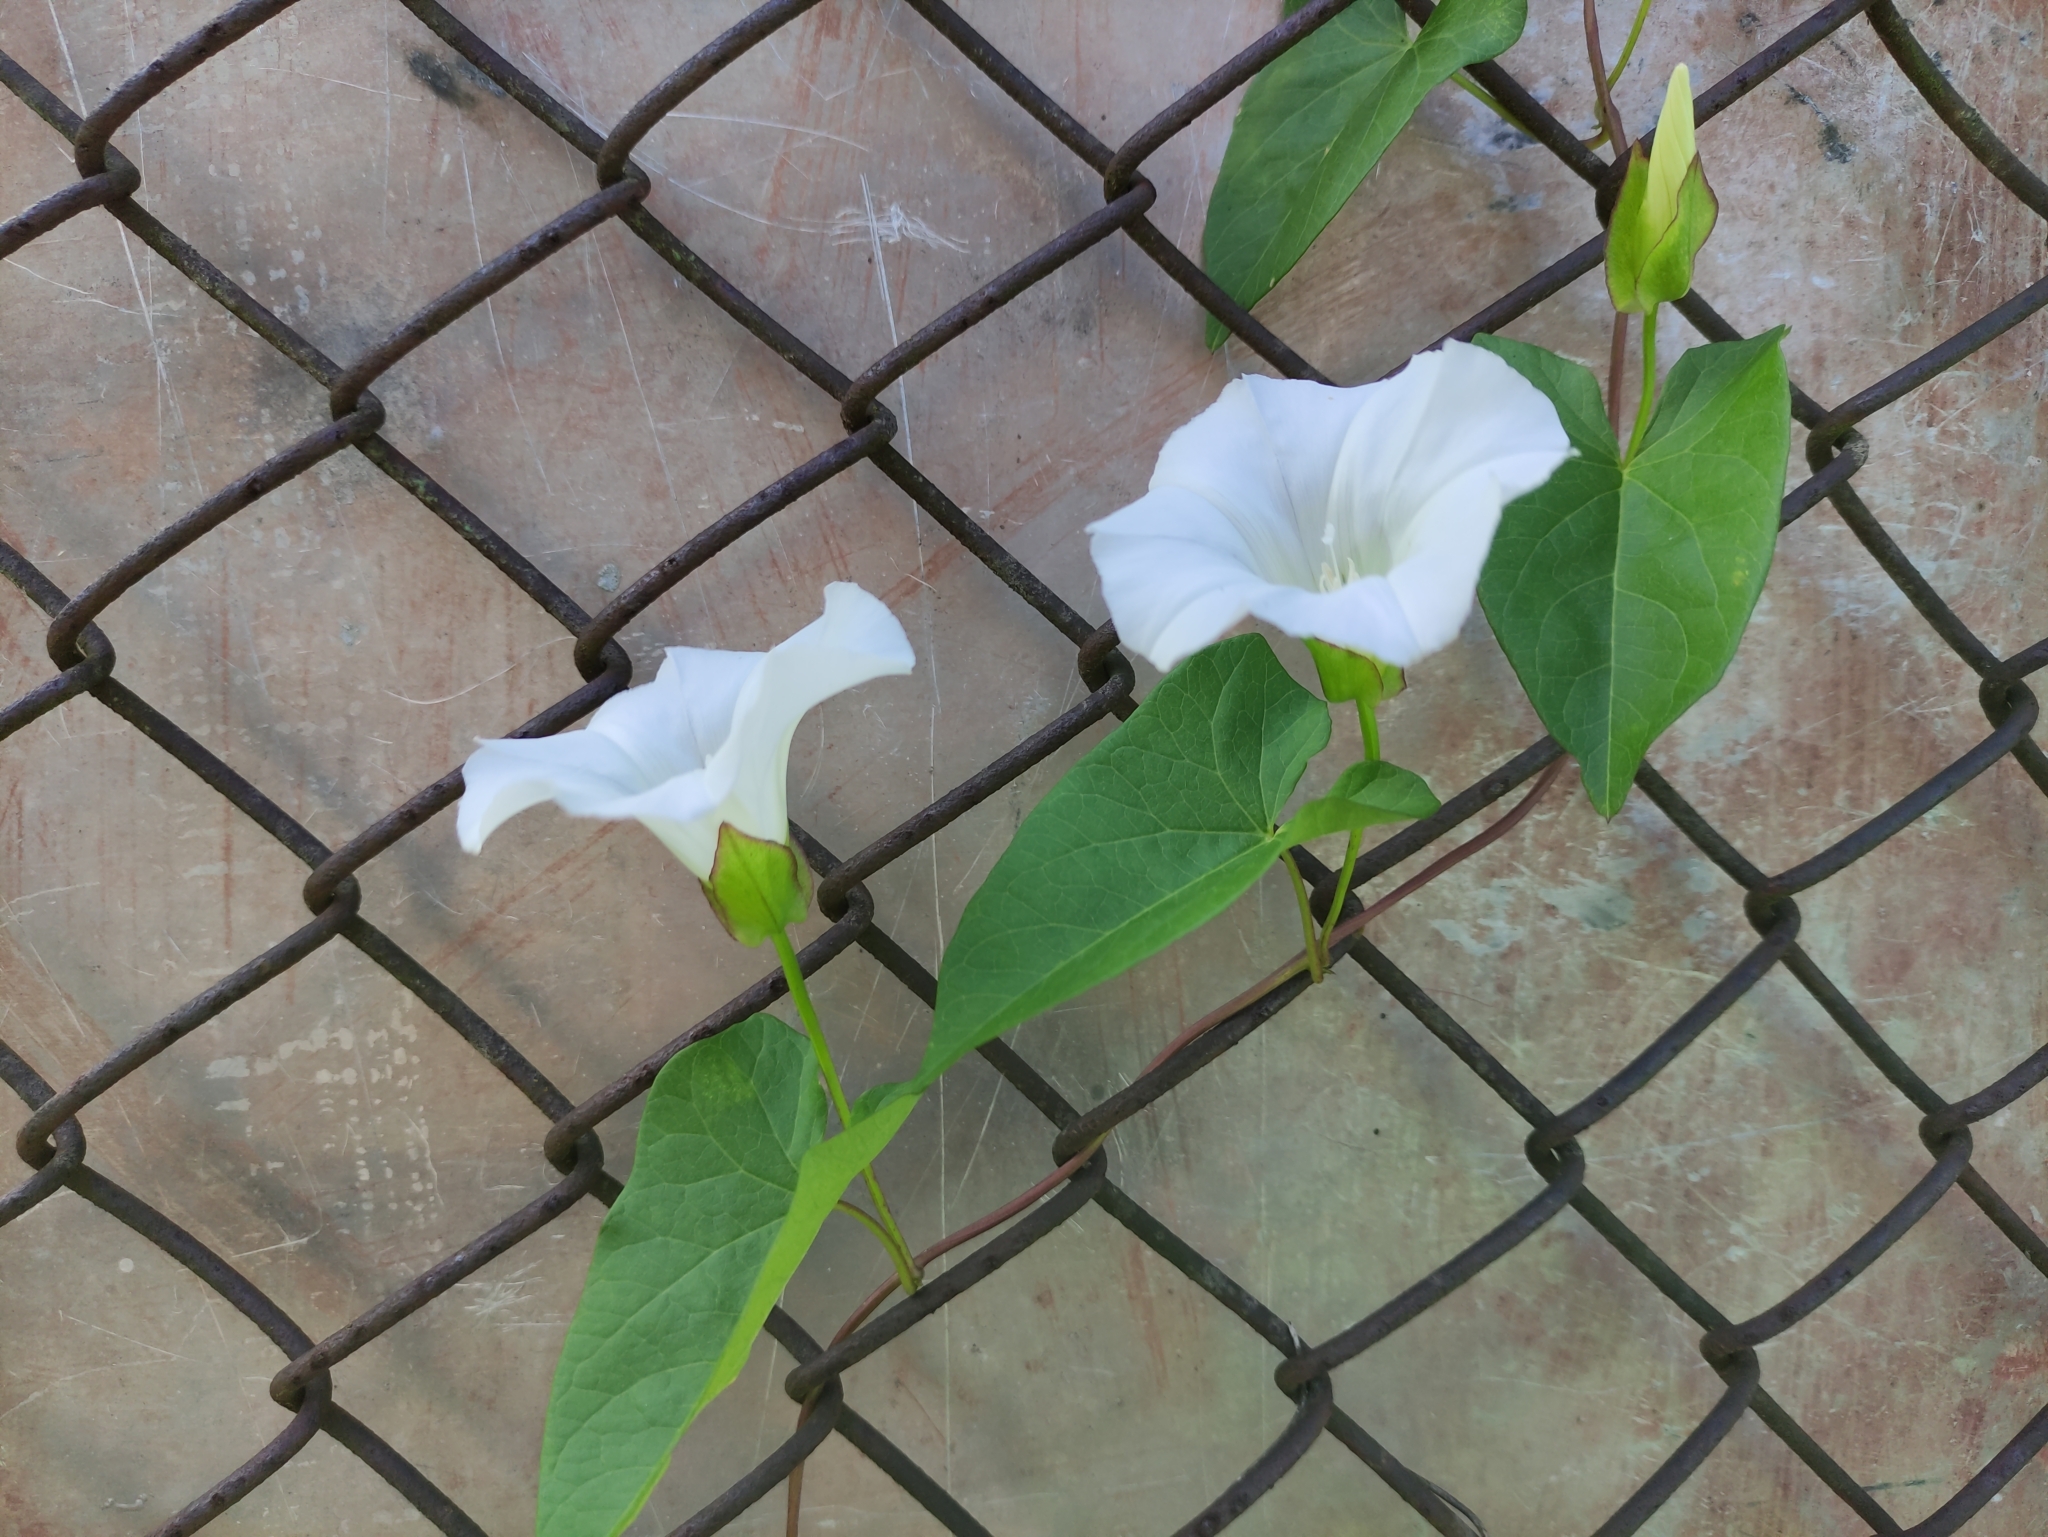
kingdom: Plantae
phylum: Tracheophyta
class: Magnoliopsida
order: Solanales
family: Convolvulaceae
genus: Calystegia
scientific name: Calystegia sepium
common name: Hedge bindweed
